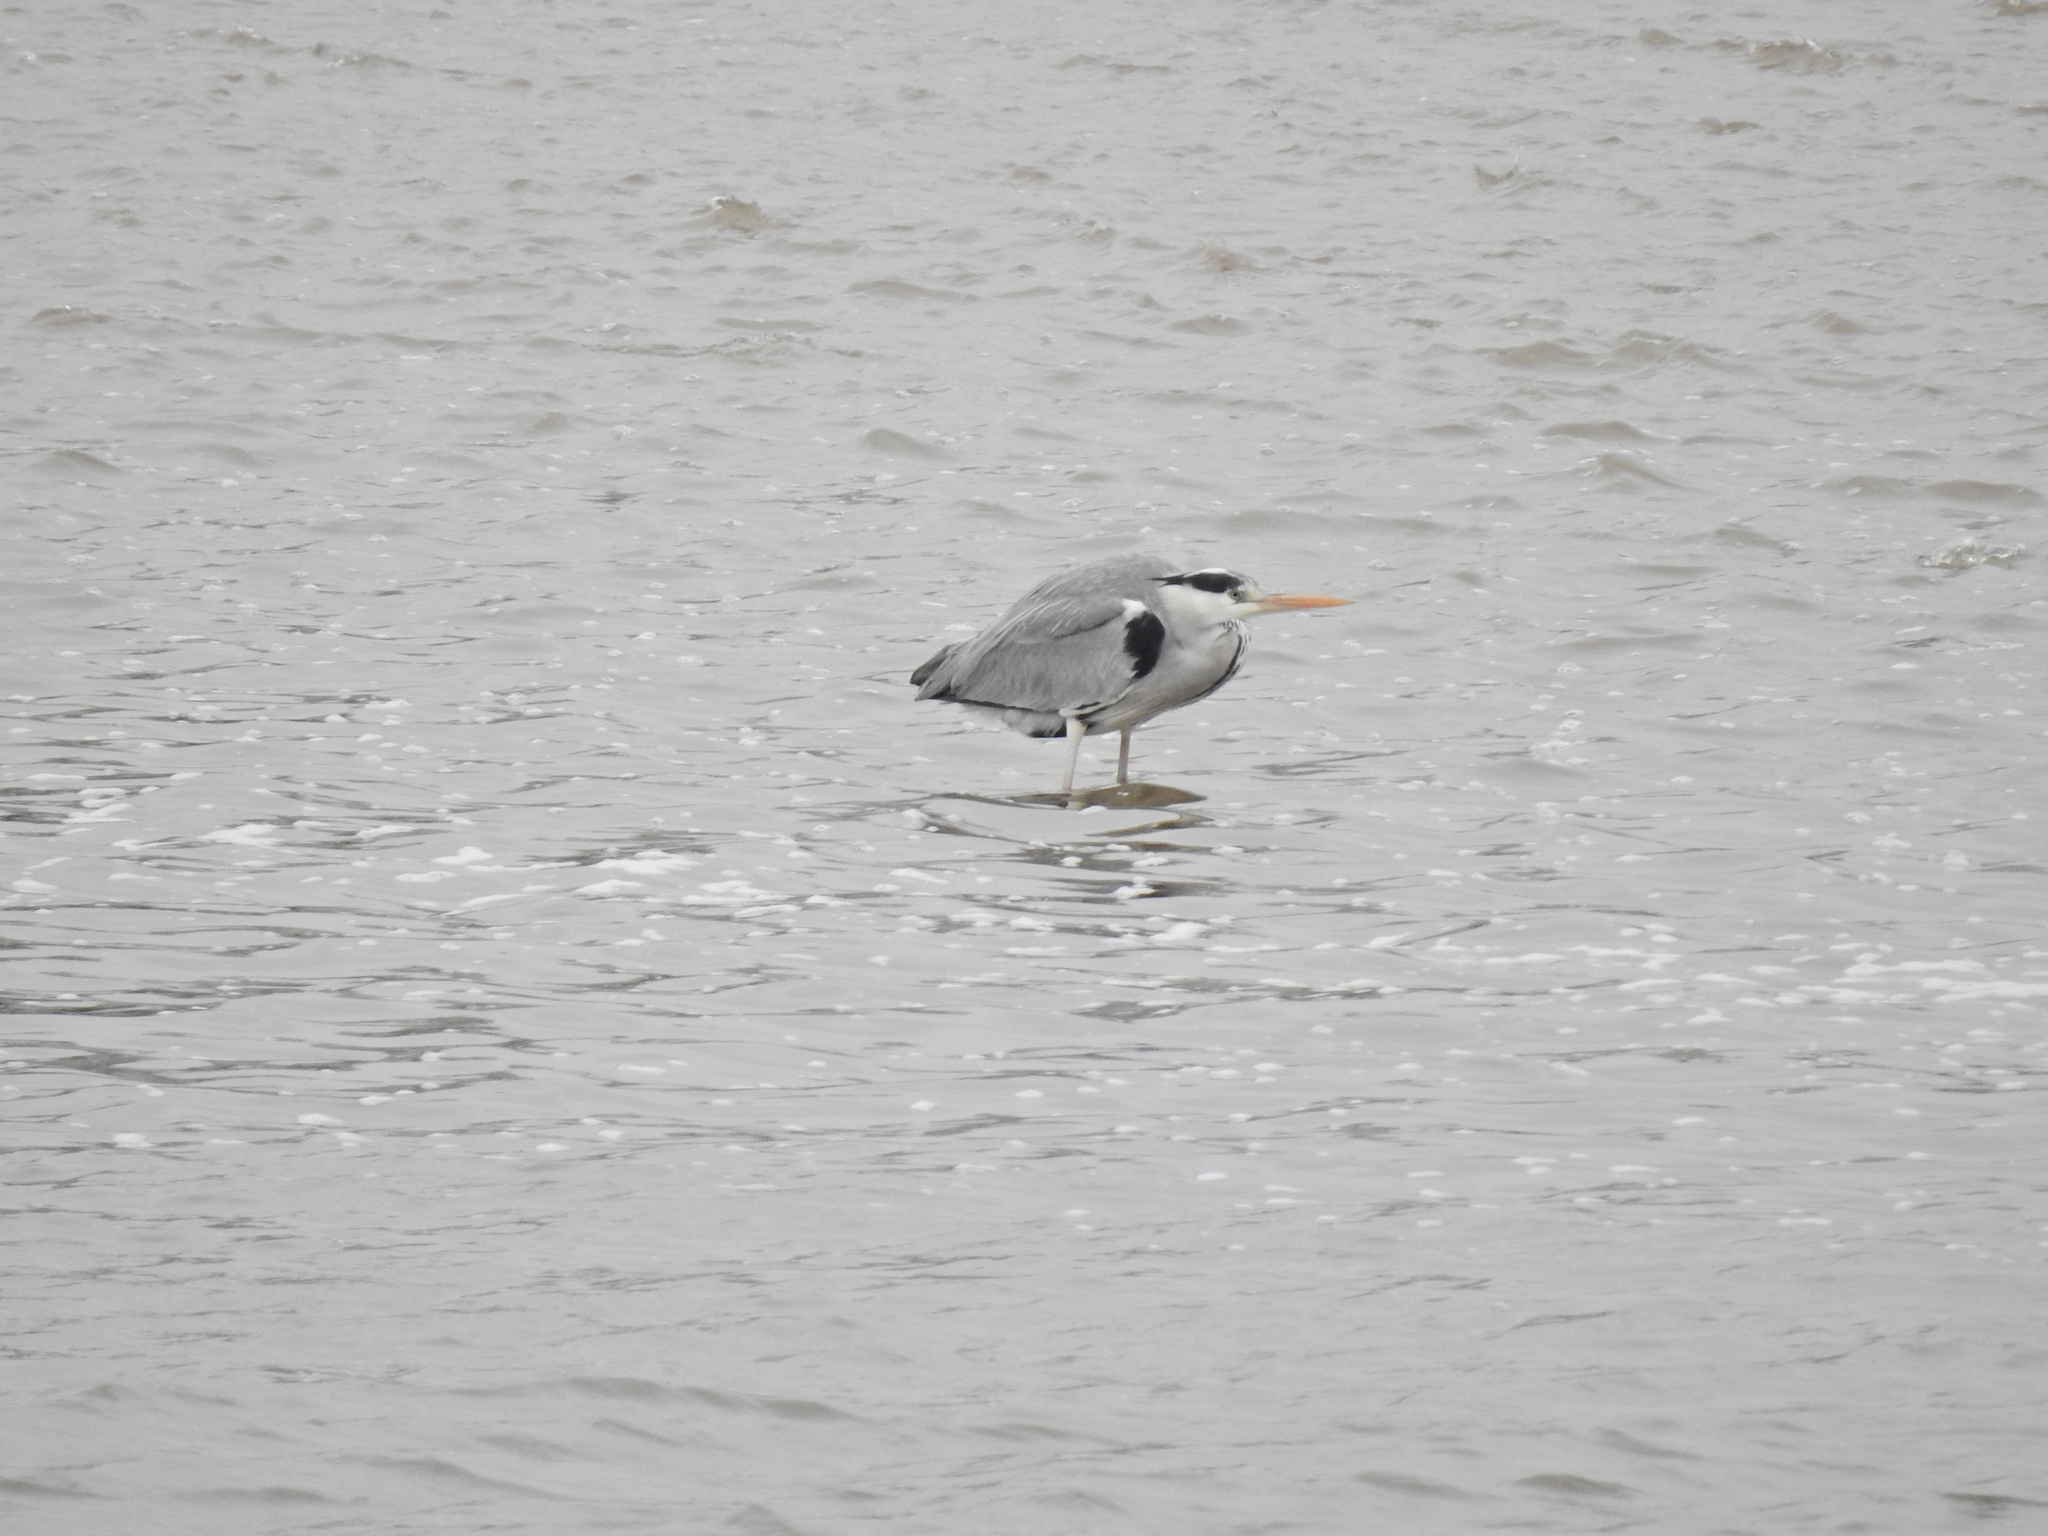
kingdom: Animalia
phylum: Chordata
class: Aves
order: Pelecaniformes
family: Ardeidae
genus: Ardea
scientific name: Ardea cinerea
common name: Grey heron
